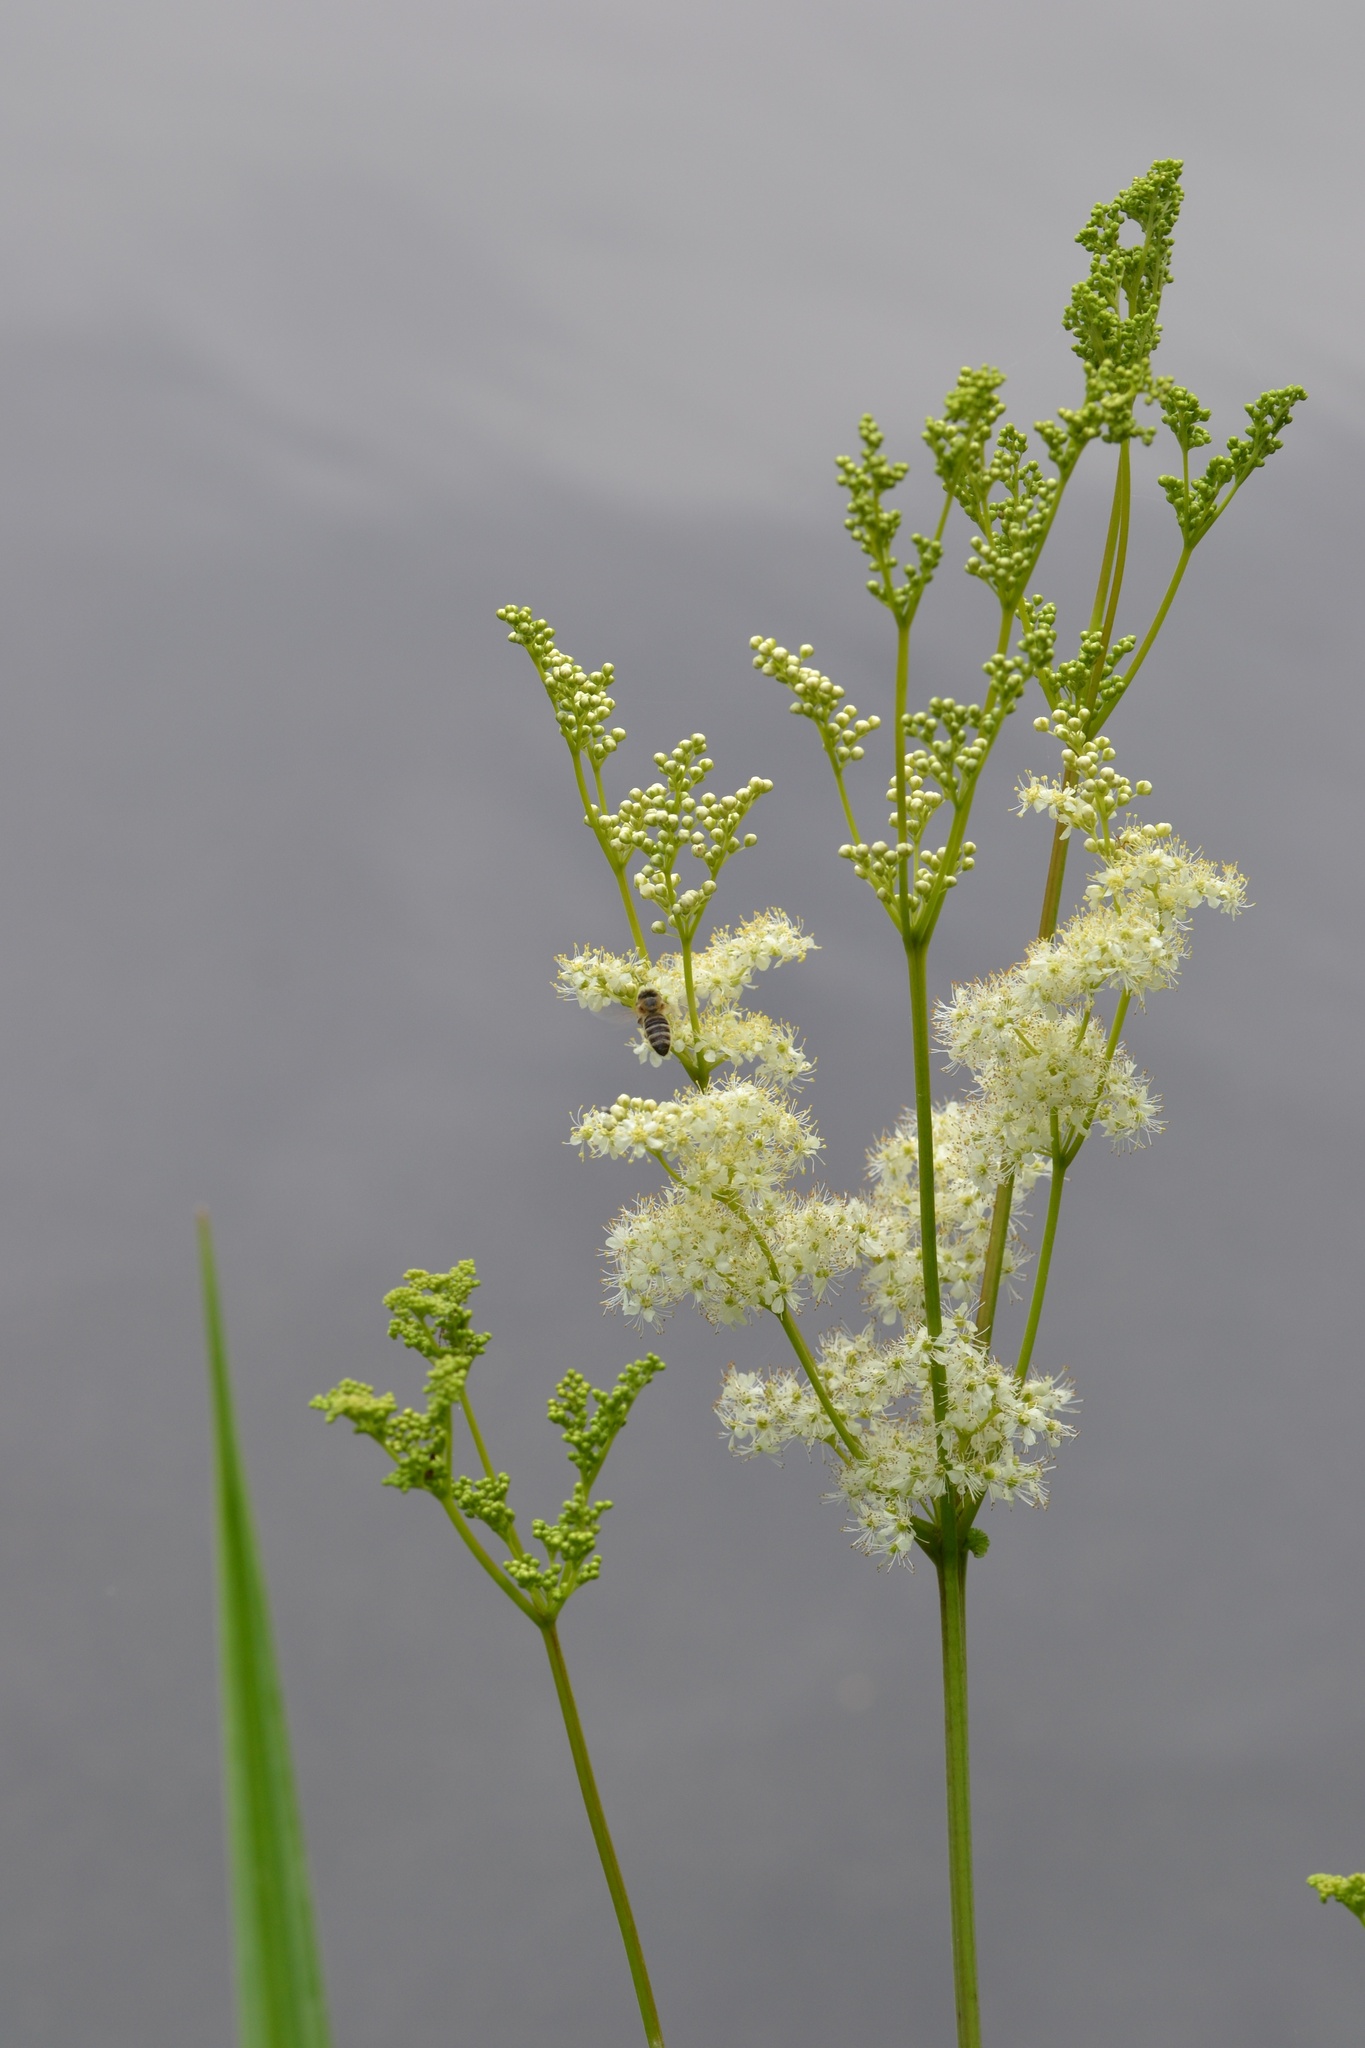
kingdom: Plantae
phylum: Tracheophyta
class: Magnoliopsida
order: Rosales
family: Rosaceae
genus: Filipendula
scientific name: Filipendula ulmaria
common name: Meadowsweet
